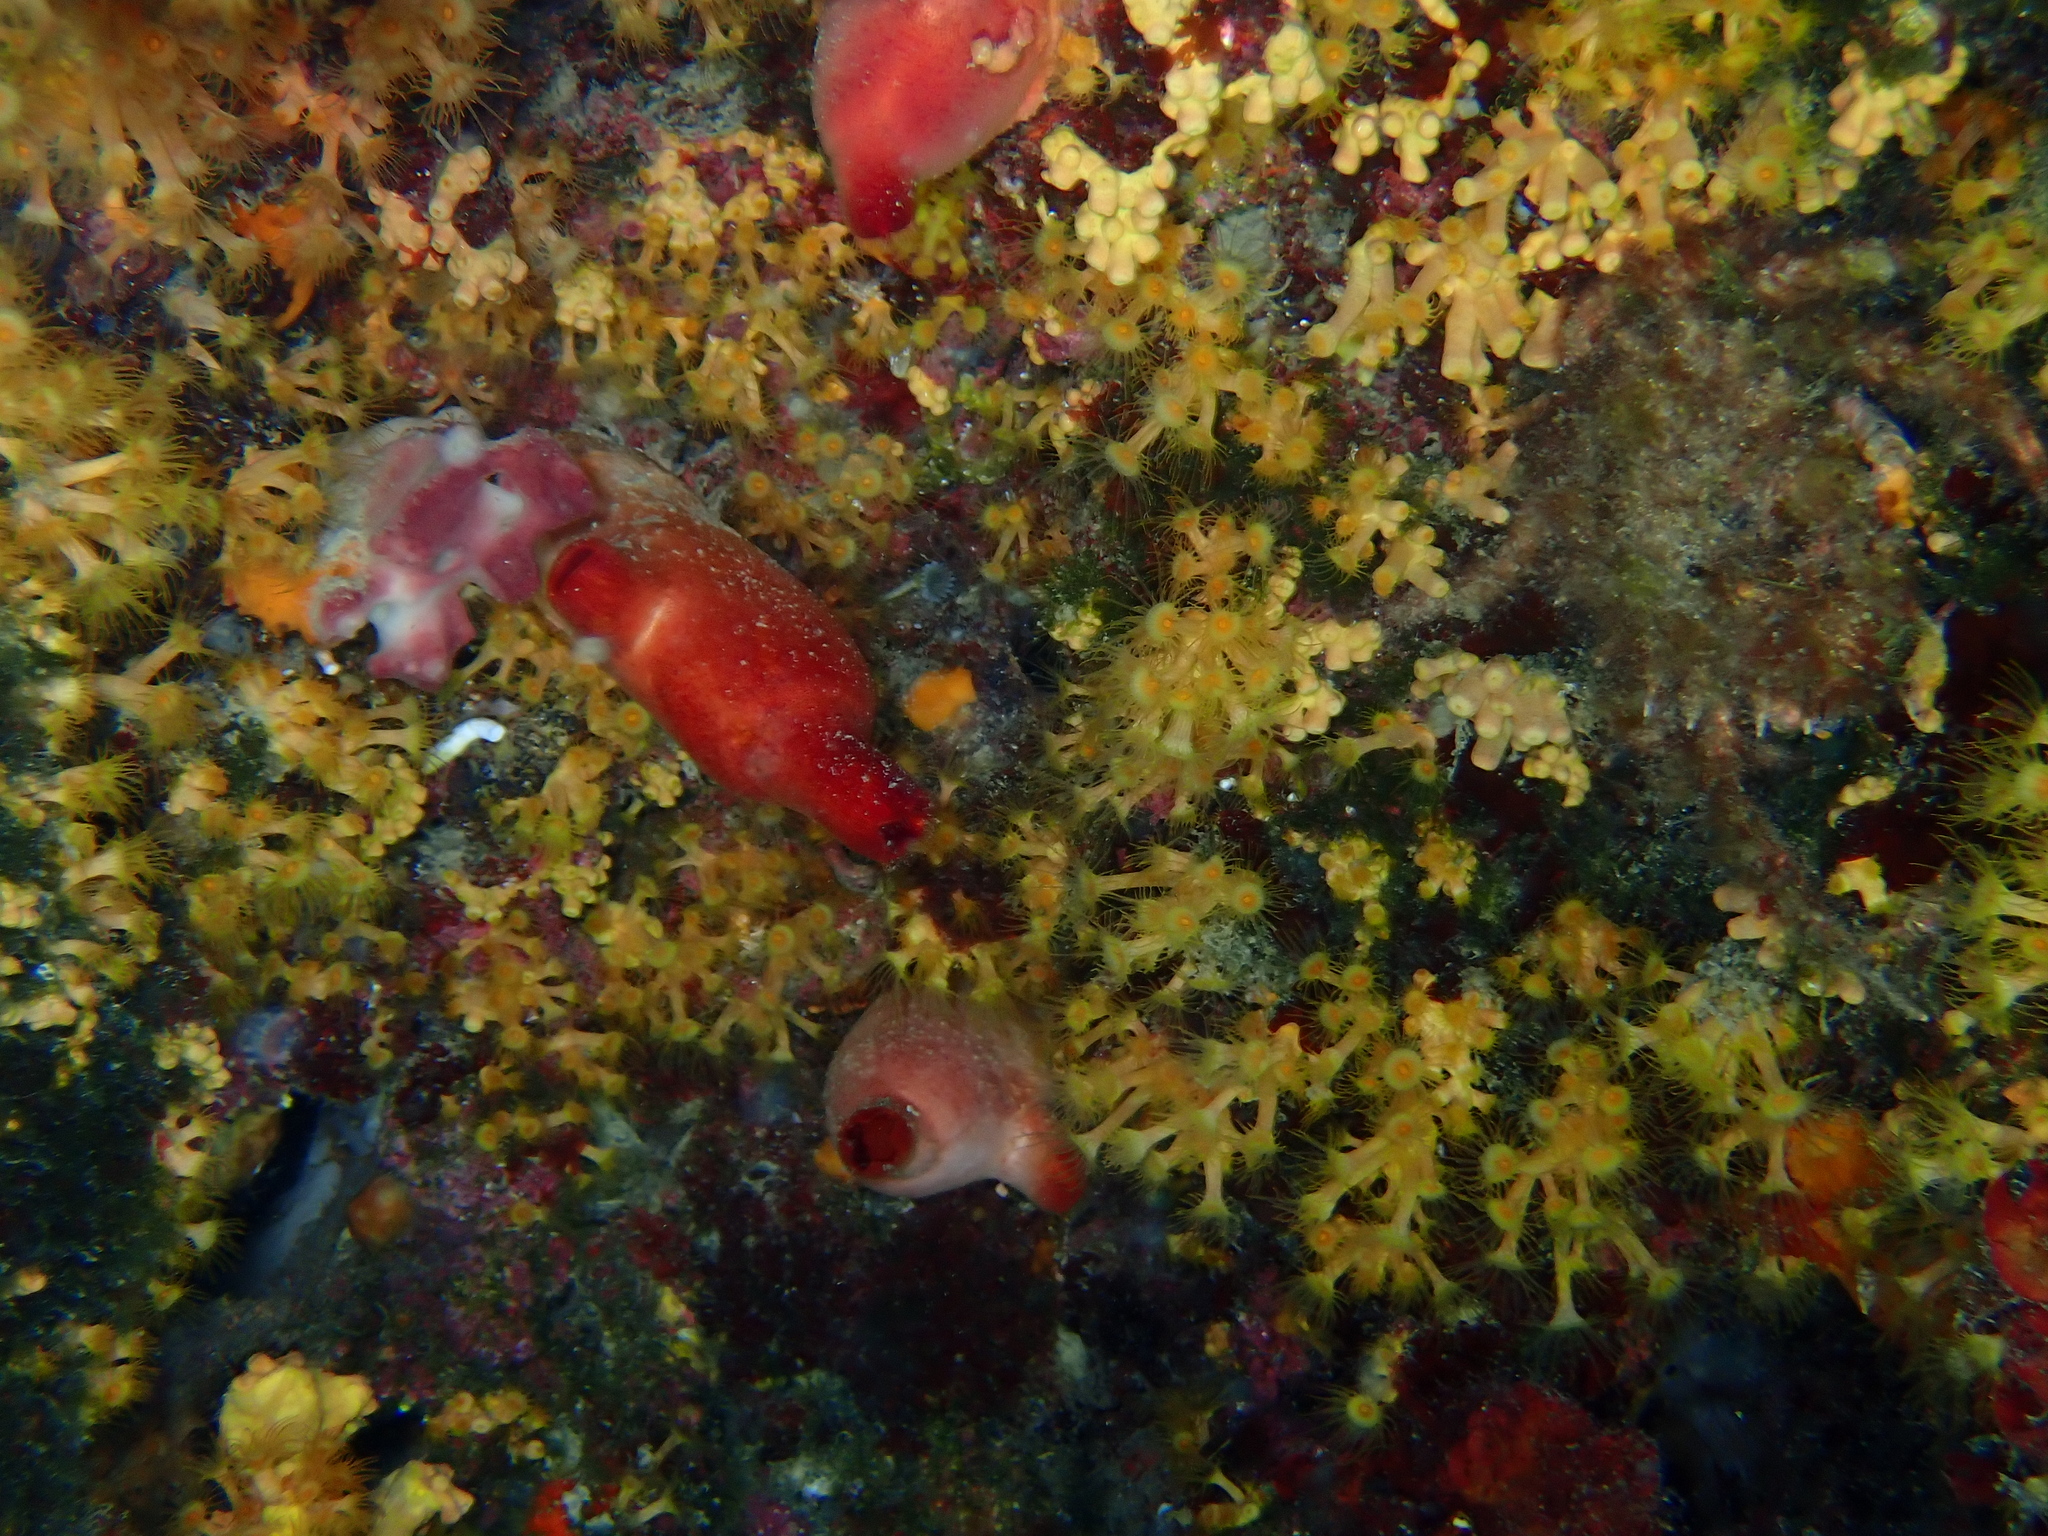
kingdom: Animalia
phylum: Chordata
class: Ascidiacea
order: Stolidobranchia
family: Pyuridae
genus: Halocynthia
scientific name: Halocynthia papillosa
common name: Red sea-squirt
